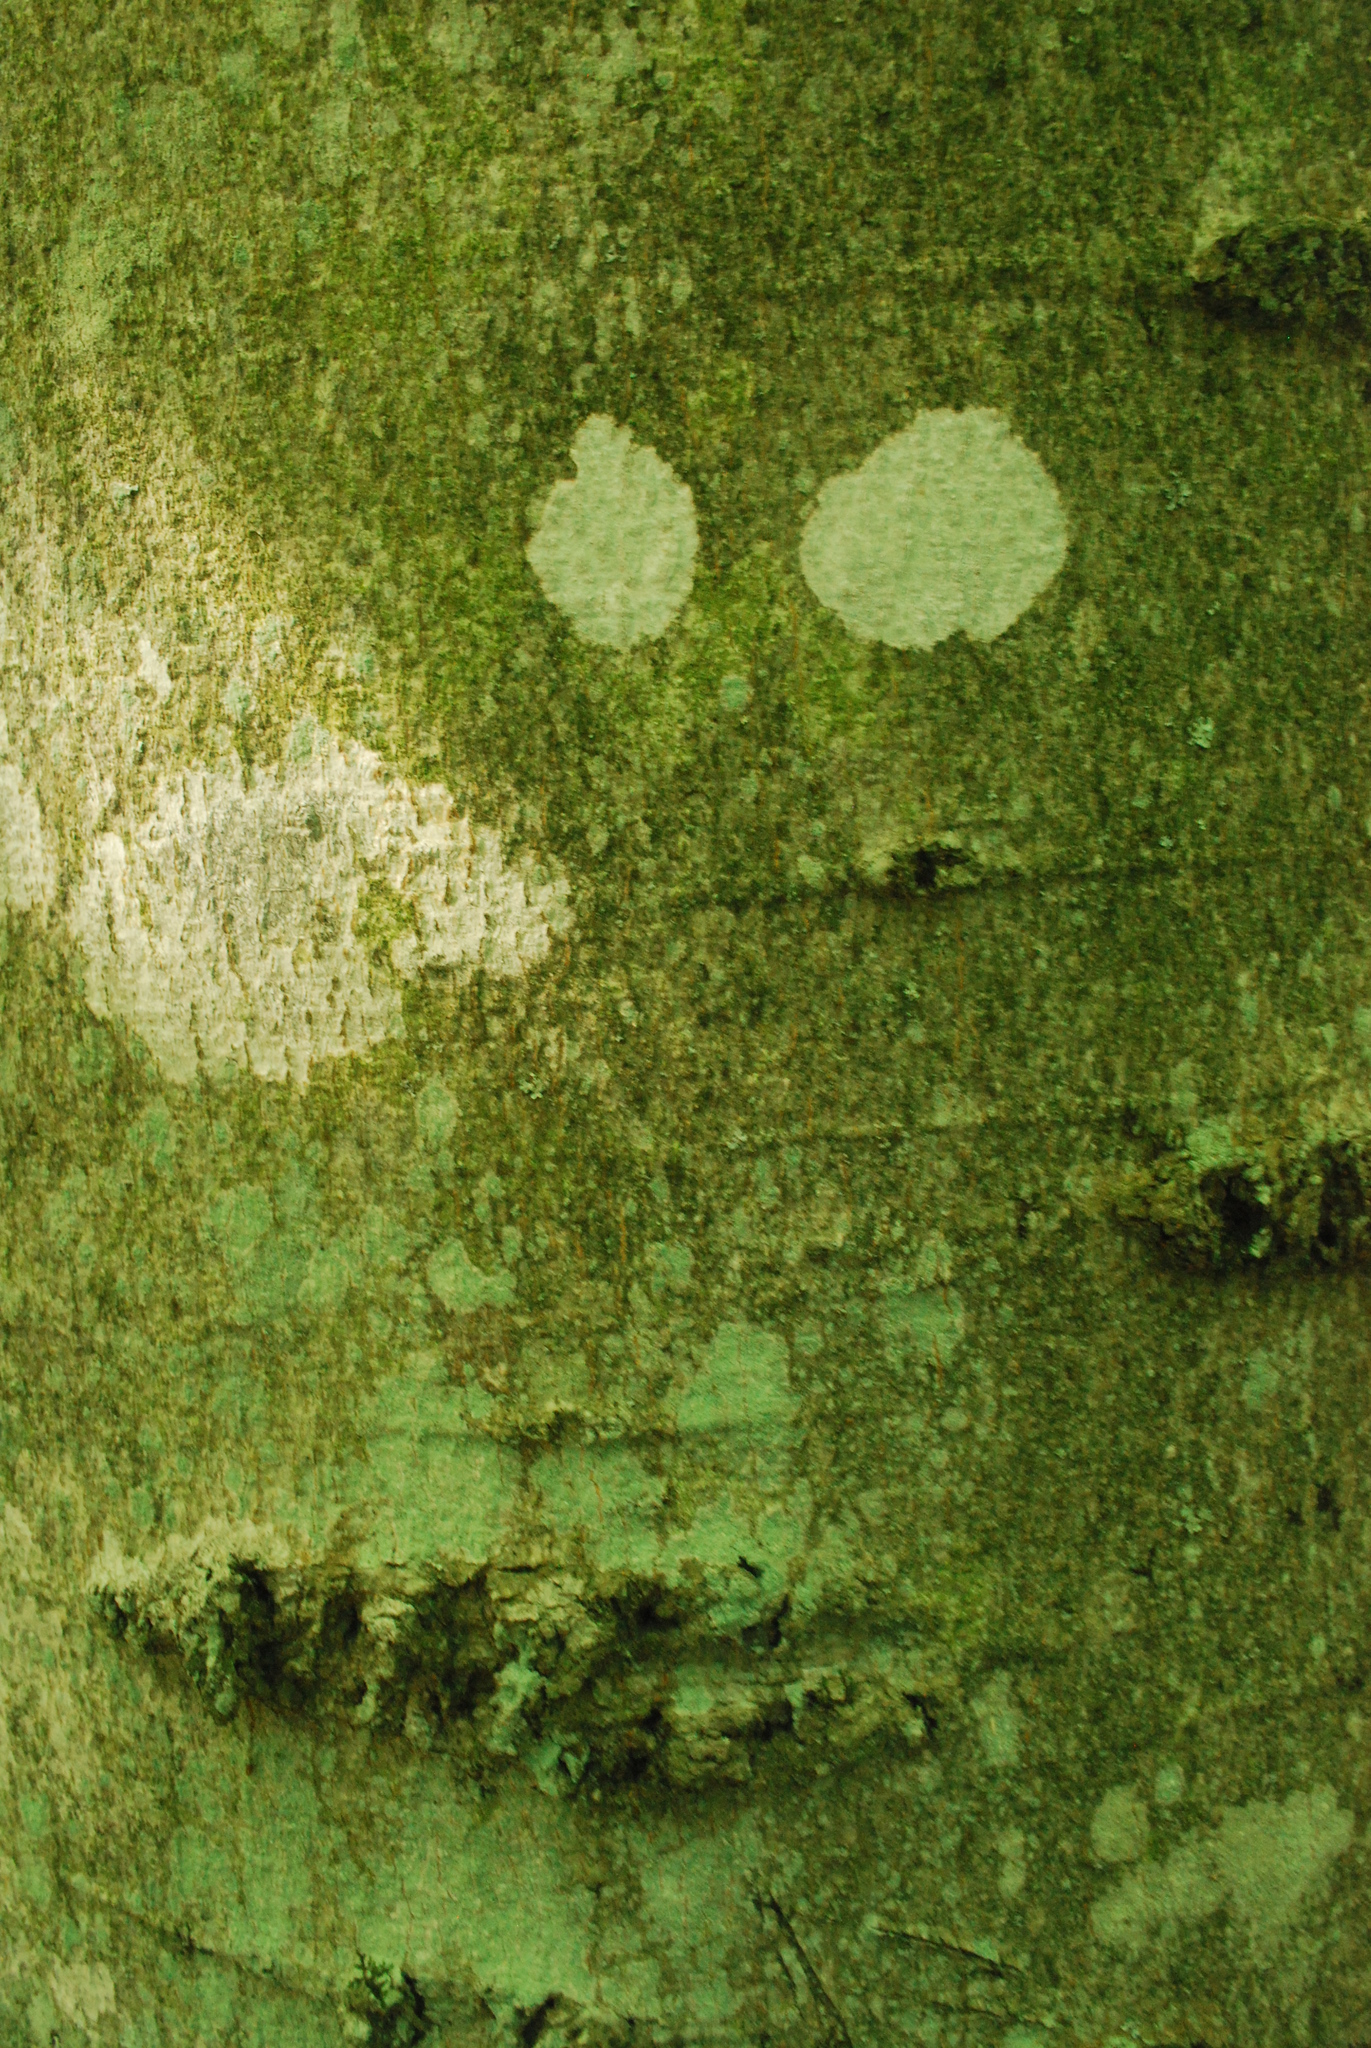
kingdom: Plantae
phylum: Tracheophyta
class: Magnoliopsida
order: Fagales
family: Fagaceae
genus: Fagus
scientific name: Fagus grandifolia
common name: American beech
